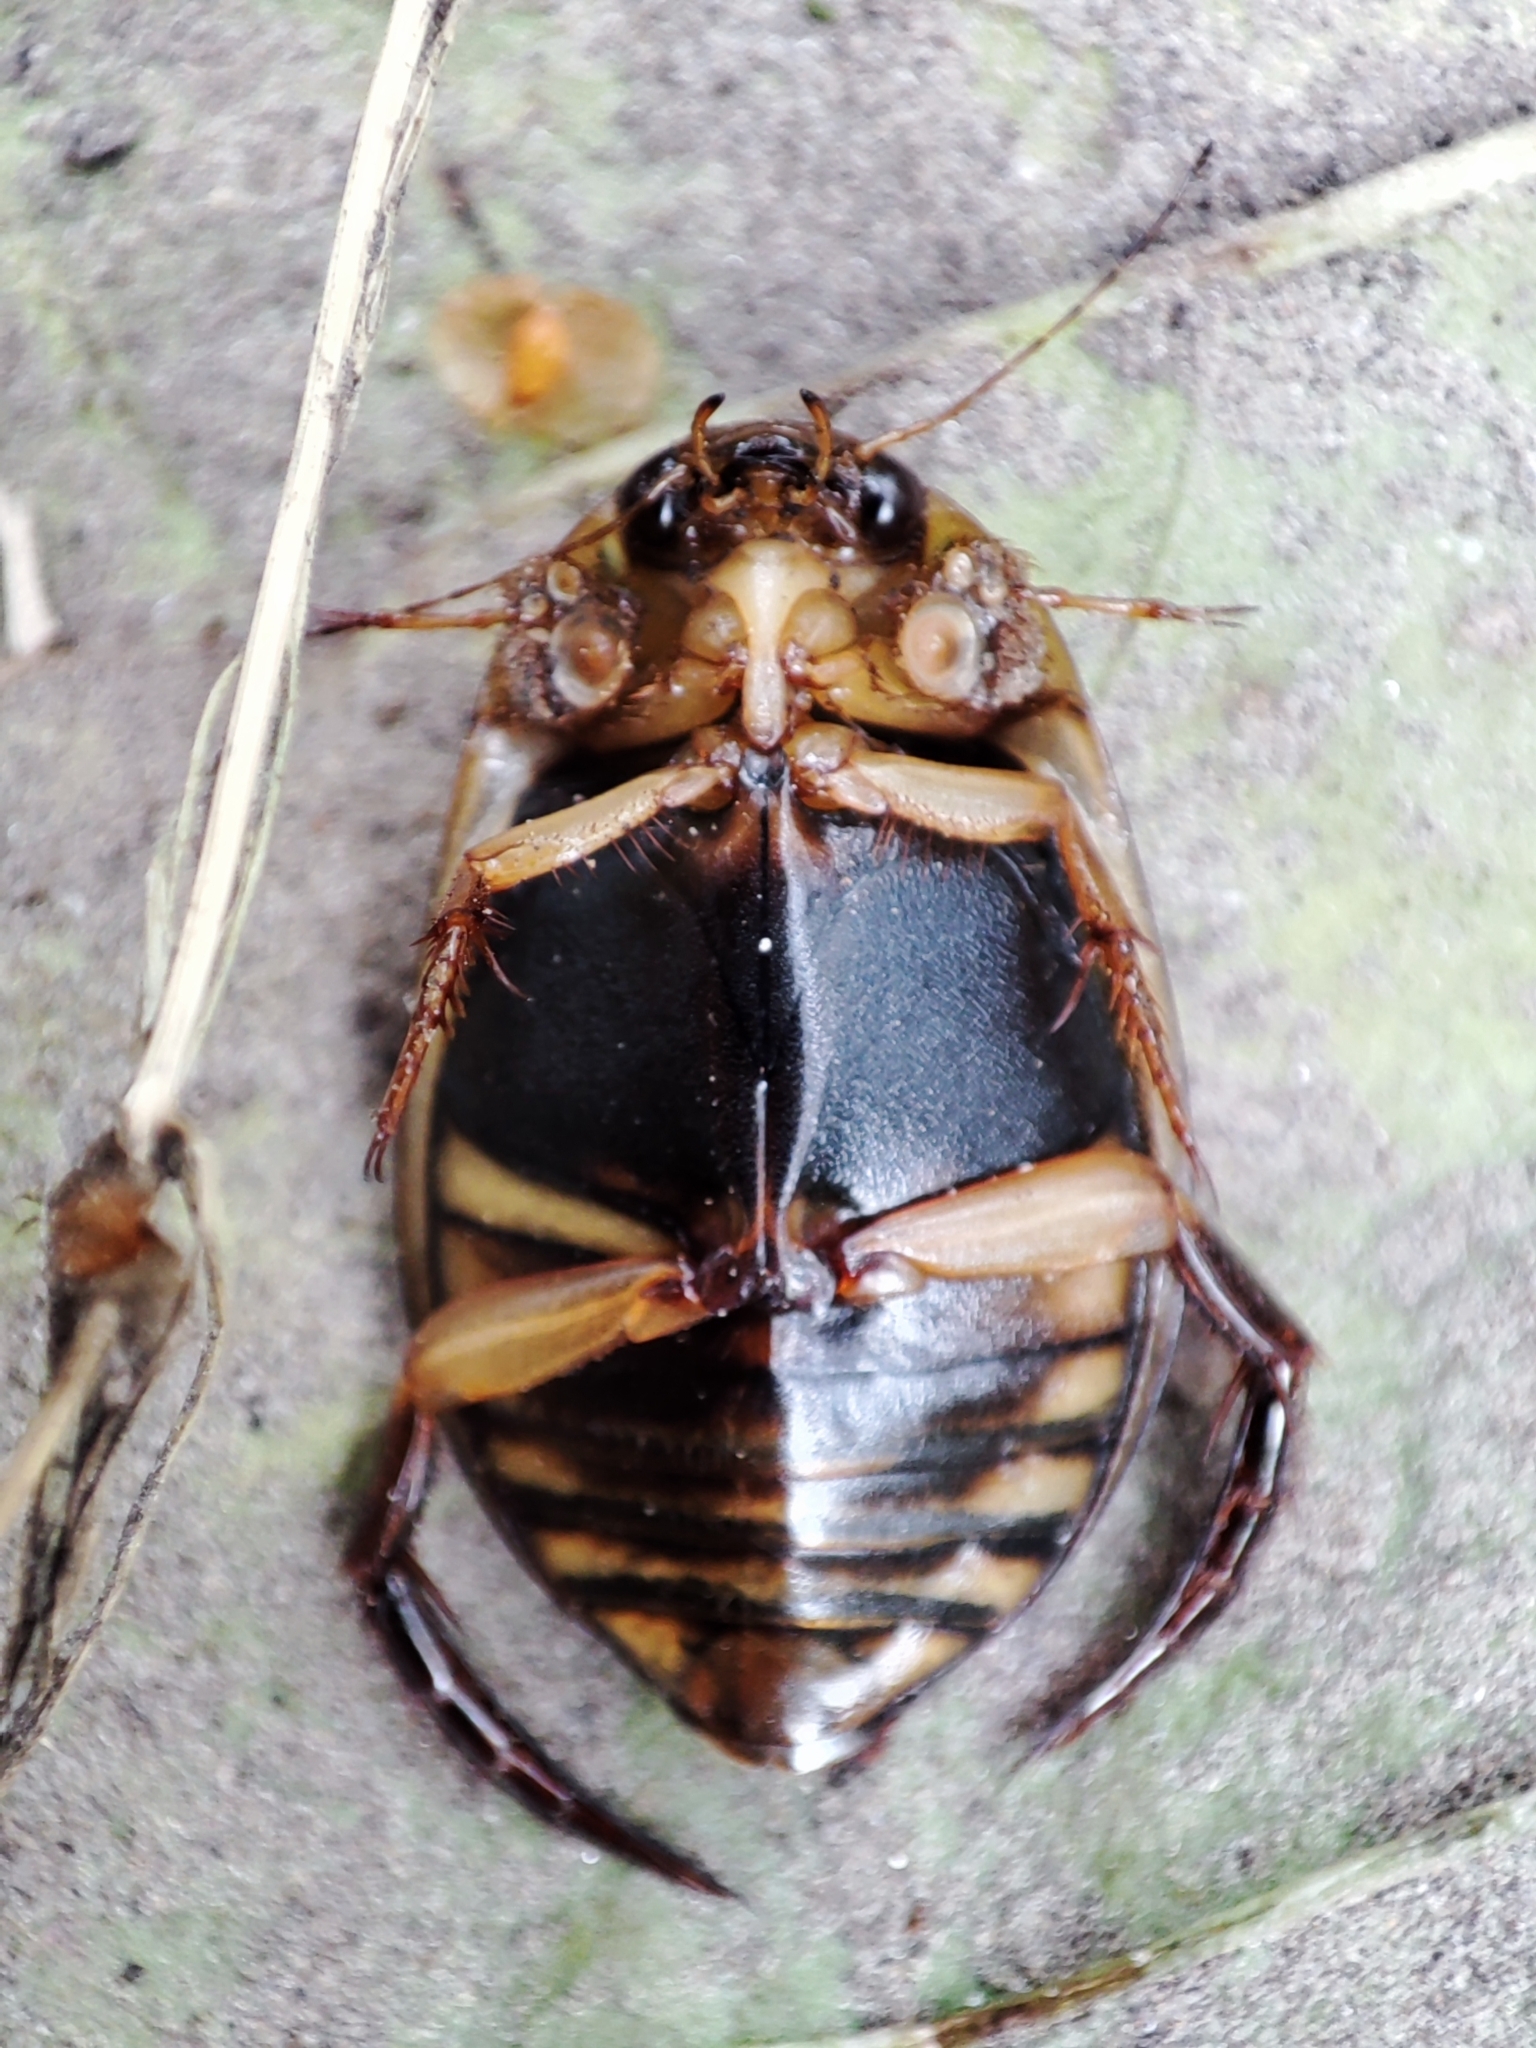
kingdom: Animalia
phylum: Arthropoda
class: Insecta
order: Coleoptera
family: Dytiscidae
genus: Acilius
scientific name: Acilius canaliculatus
